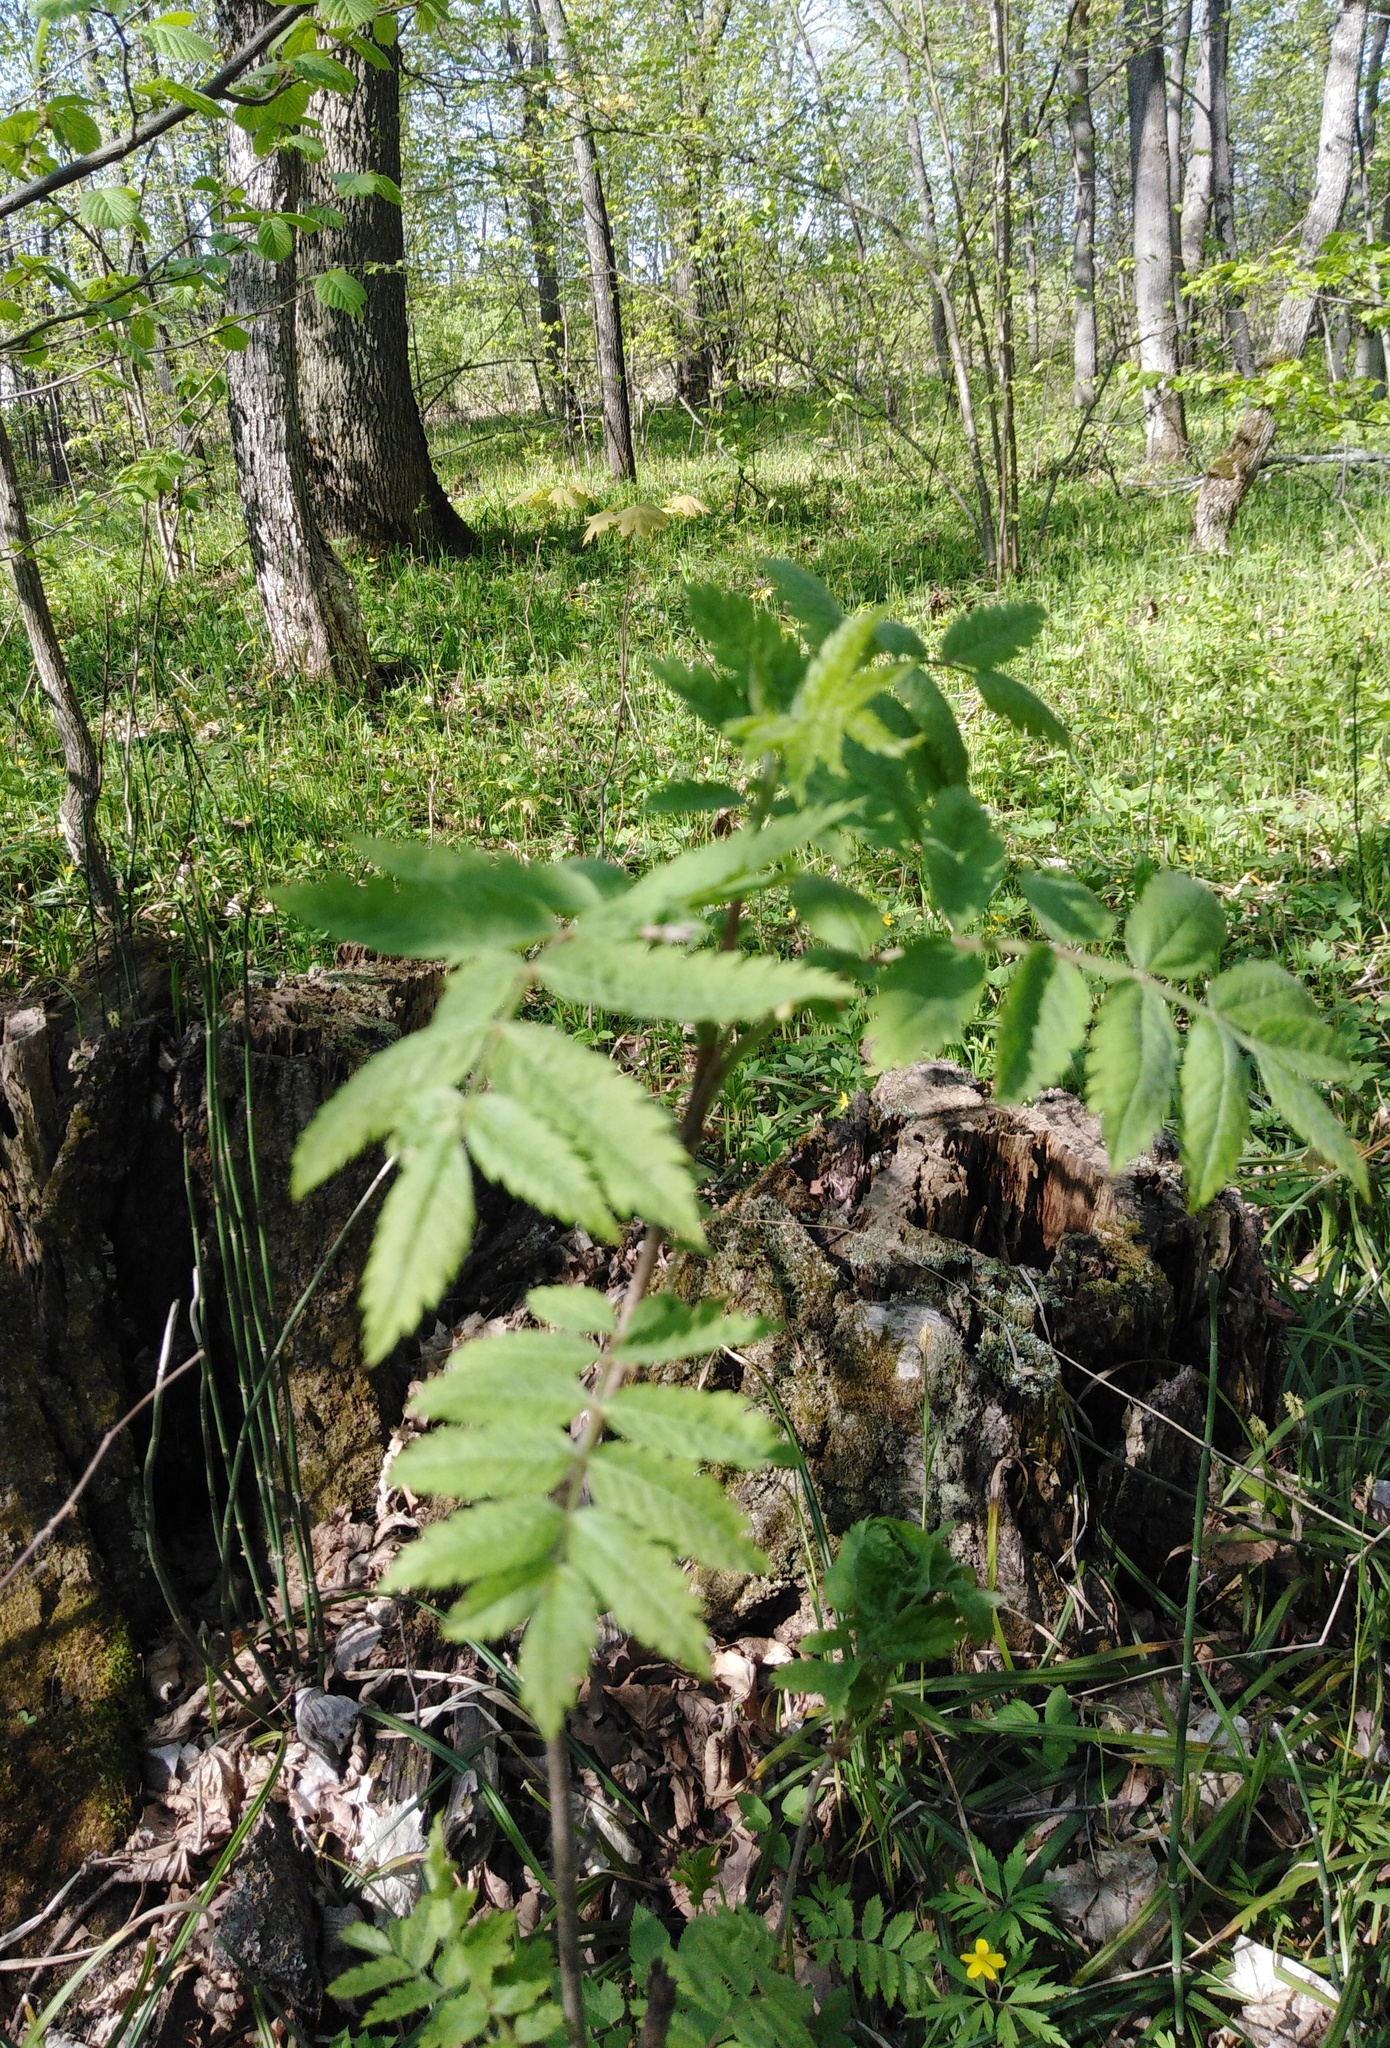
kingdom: Plantae
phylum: Tracheophyta
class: Magnoliopsida
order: Rosales
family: Rosaceae
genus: Sorbus
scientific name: Sorbus aucuparia
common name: Rowan
